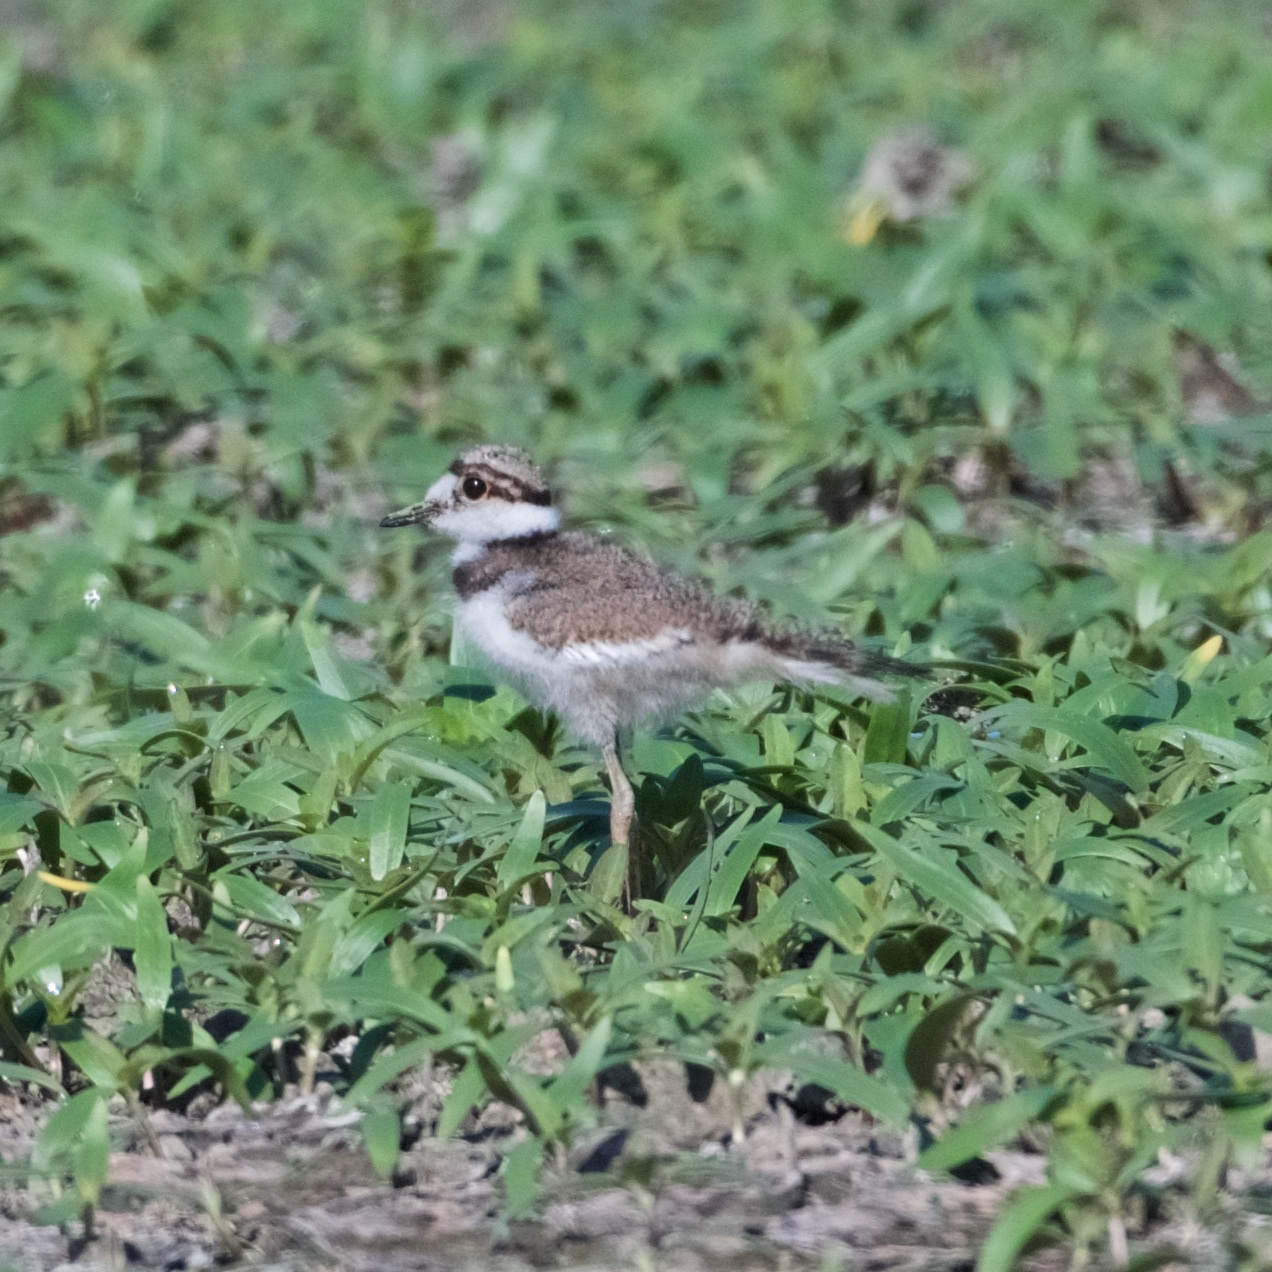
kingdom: Animalia
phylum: Chordata
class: Aves
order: Charadriiformes
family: Charadriidae
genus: Charadrius
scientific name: Charadrius vociferus
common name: Killdeer
